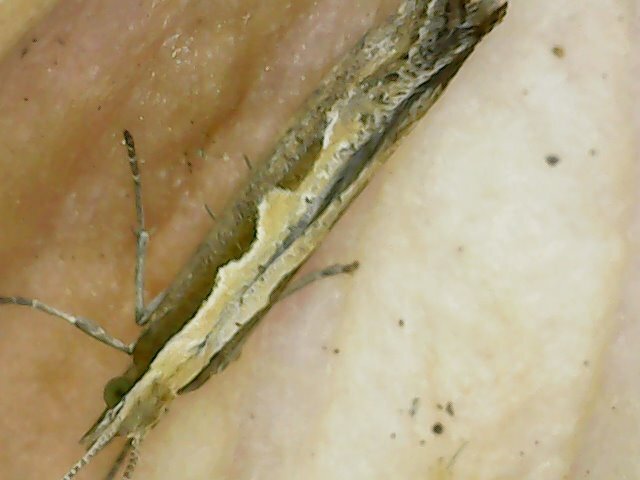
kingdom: Animalia
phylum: Arthropoda
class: Insecta
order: Lepidoptera
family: Plutellidae
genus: Plutella
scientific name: Plutella xylostella
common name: Diamond-back moth
